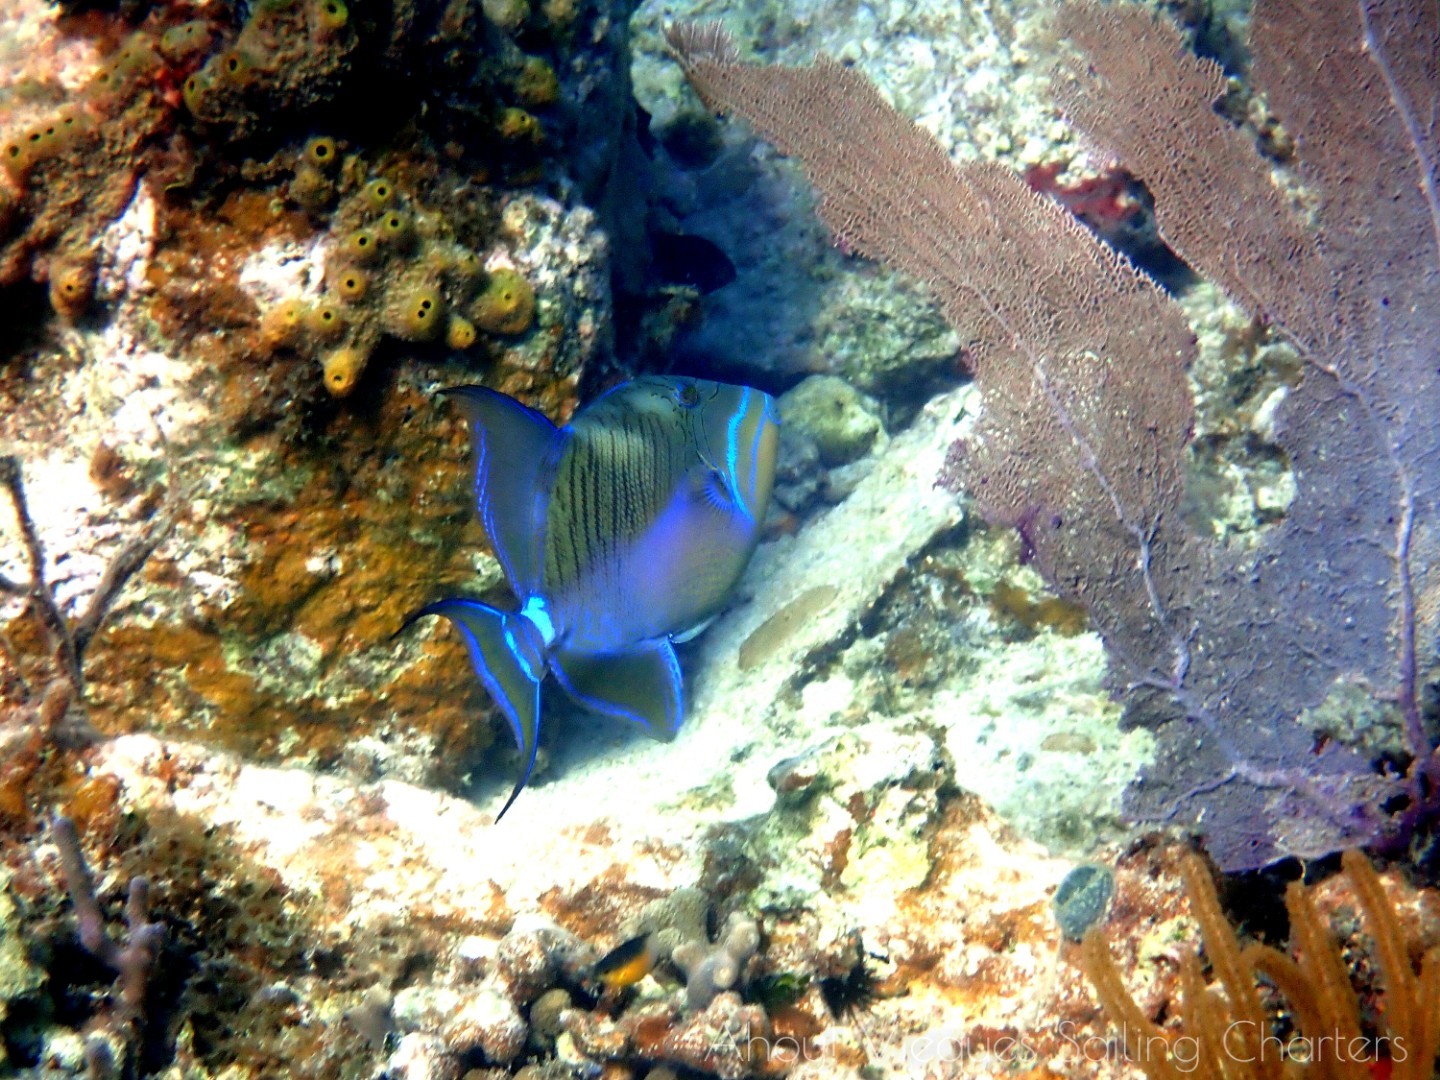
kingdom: Animalia
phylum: Chordata
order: Tetraodontiformes
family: Balistidae
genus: Balistes
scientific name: Balistes vetula
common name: Queen triggerfish
